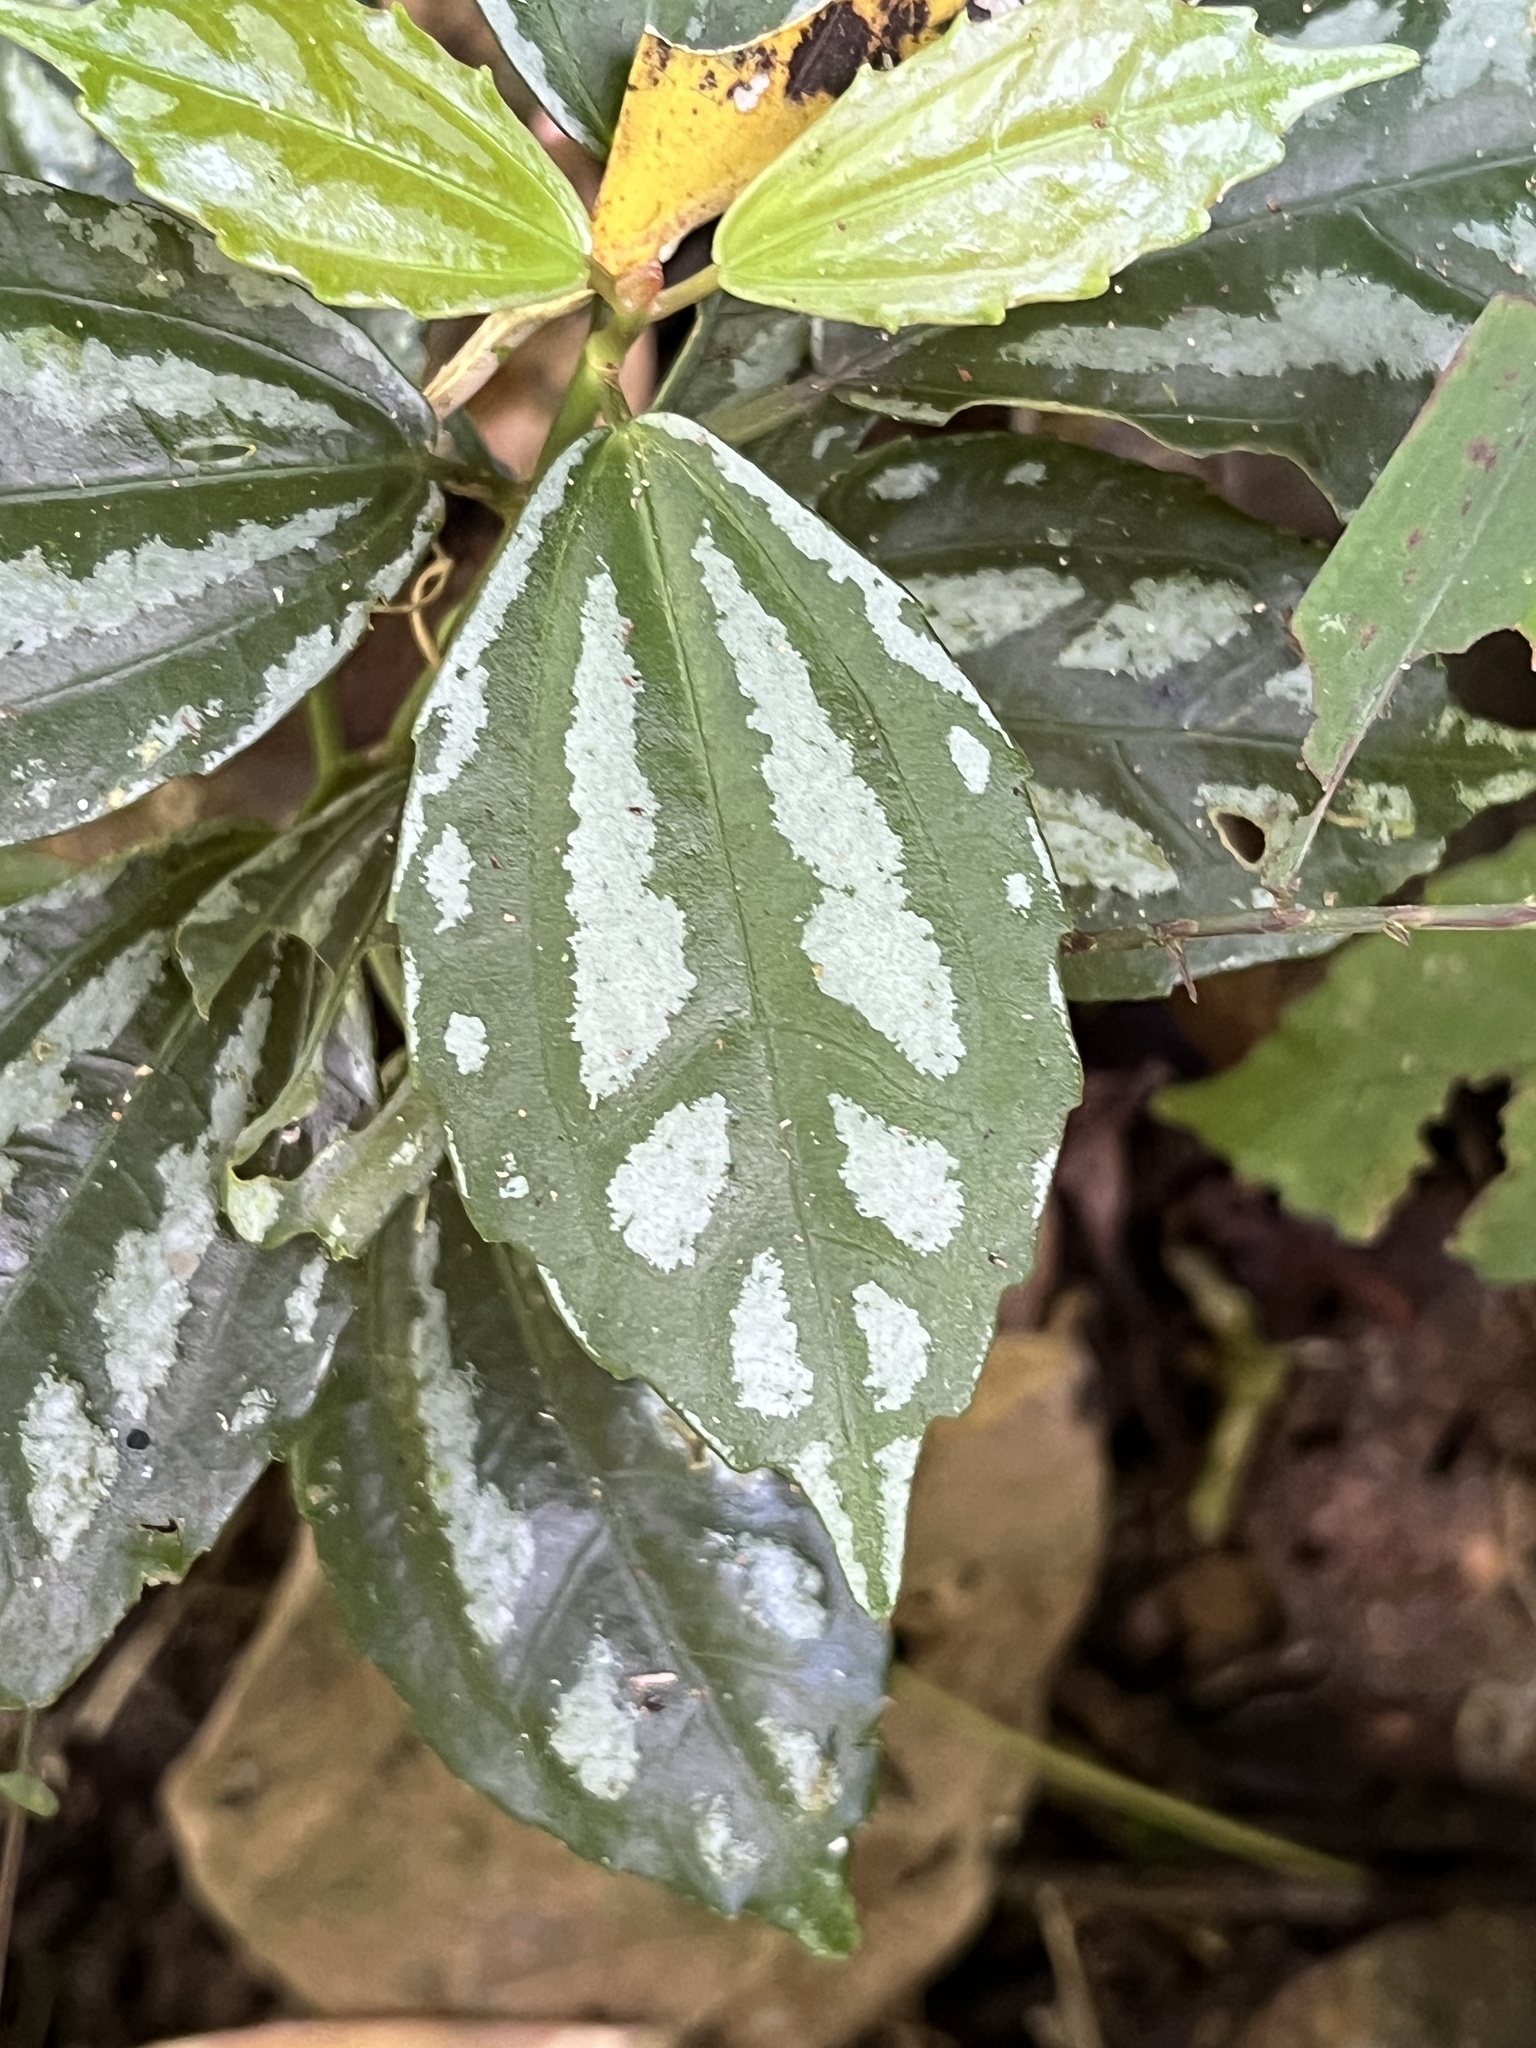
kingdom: Plantae
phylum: Tracheophyta
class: Magnoliopsida
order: Rosales
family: Urticaceae
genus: Pilea
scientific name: Pilea cadierei
